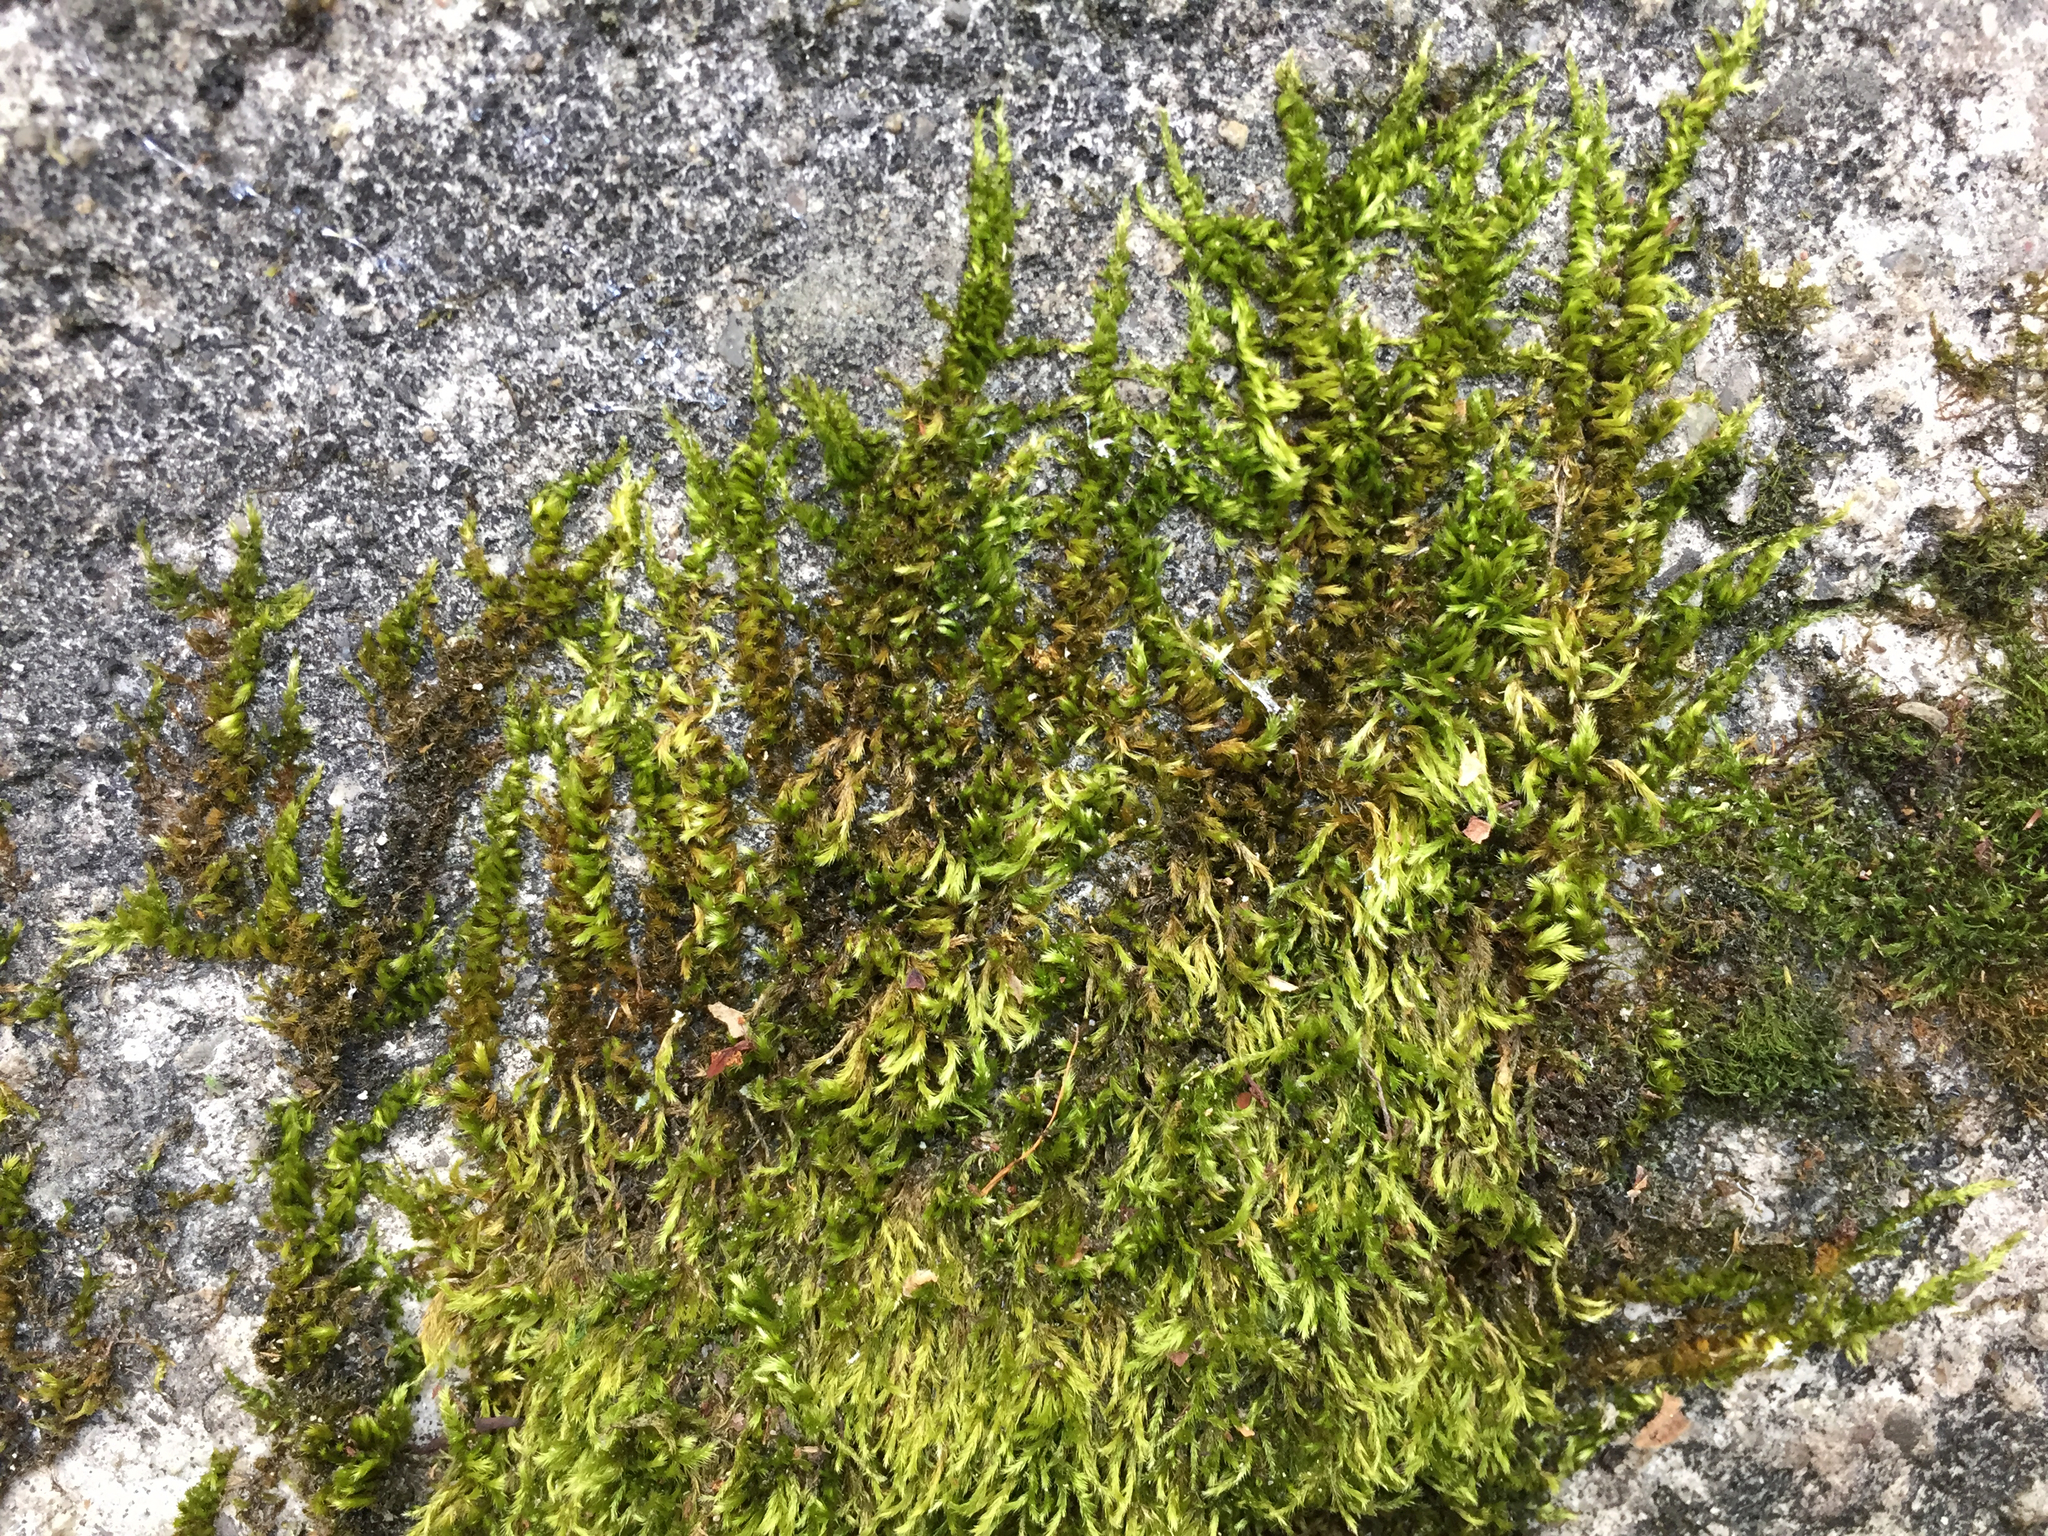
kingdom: Plantae
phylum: Bryophyta
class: Bryopsida
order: Hypnales
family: Brachytheciaceae
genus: Homalothecium
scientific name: Homalothecium sericeum
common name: Silky wall feather-moss
